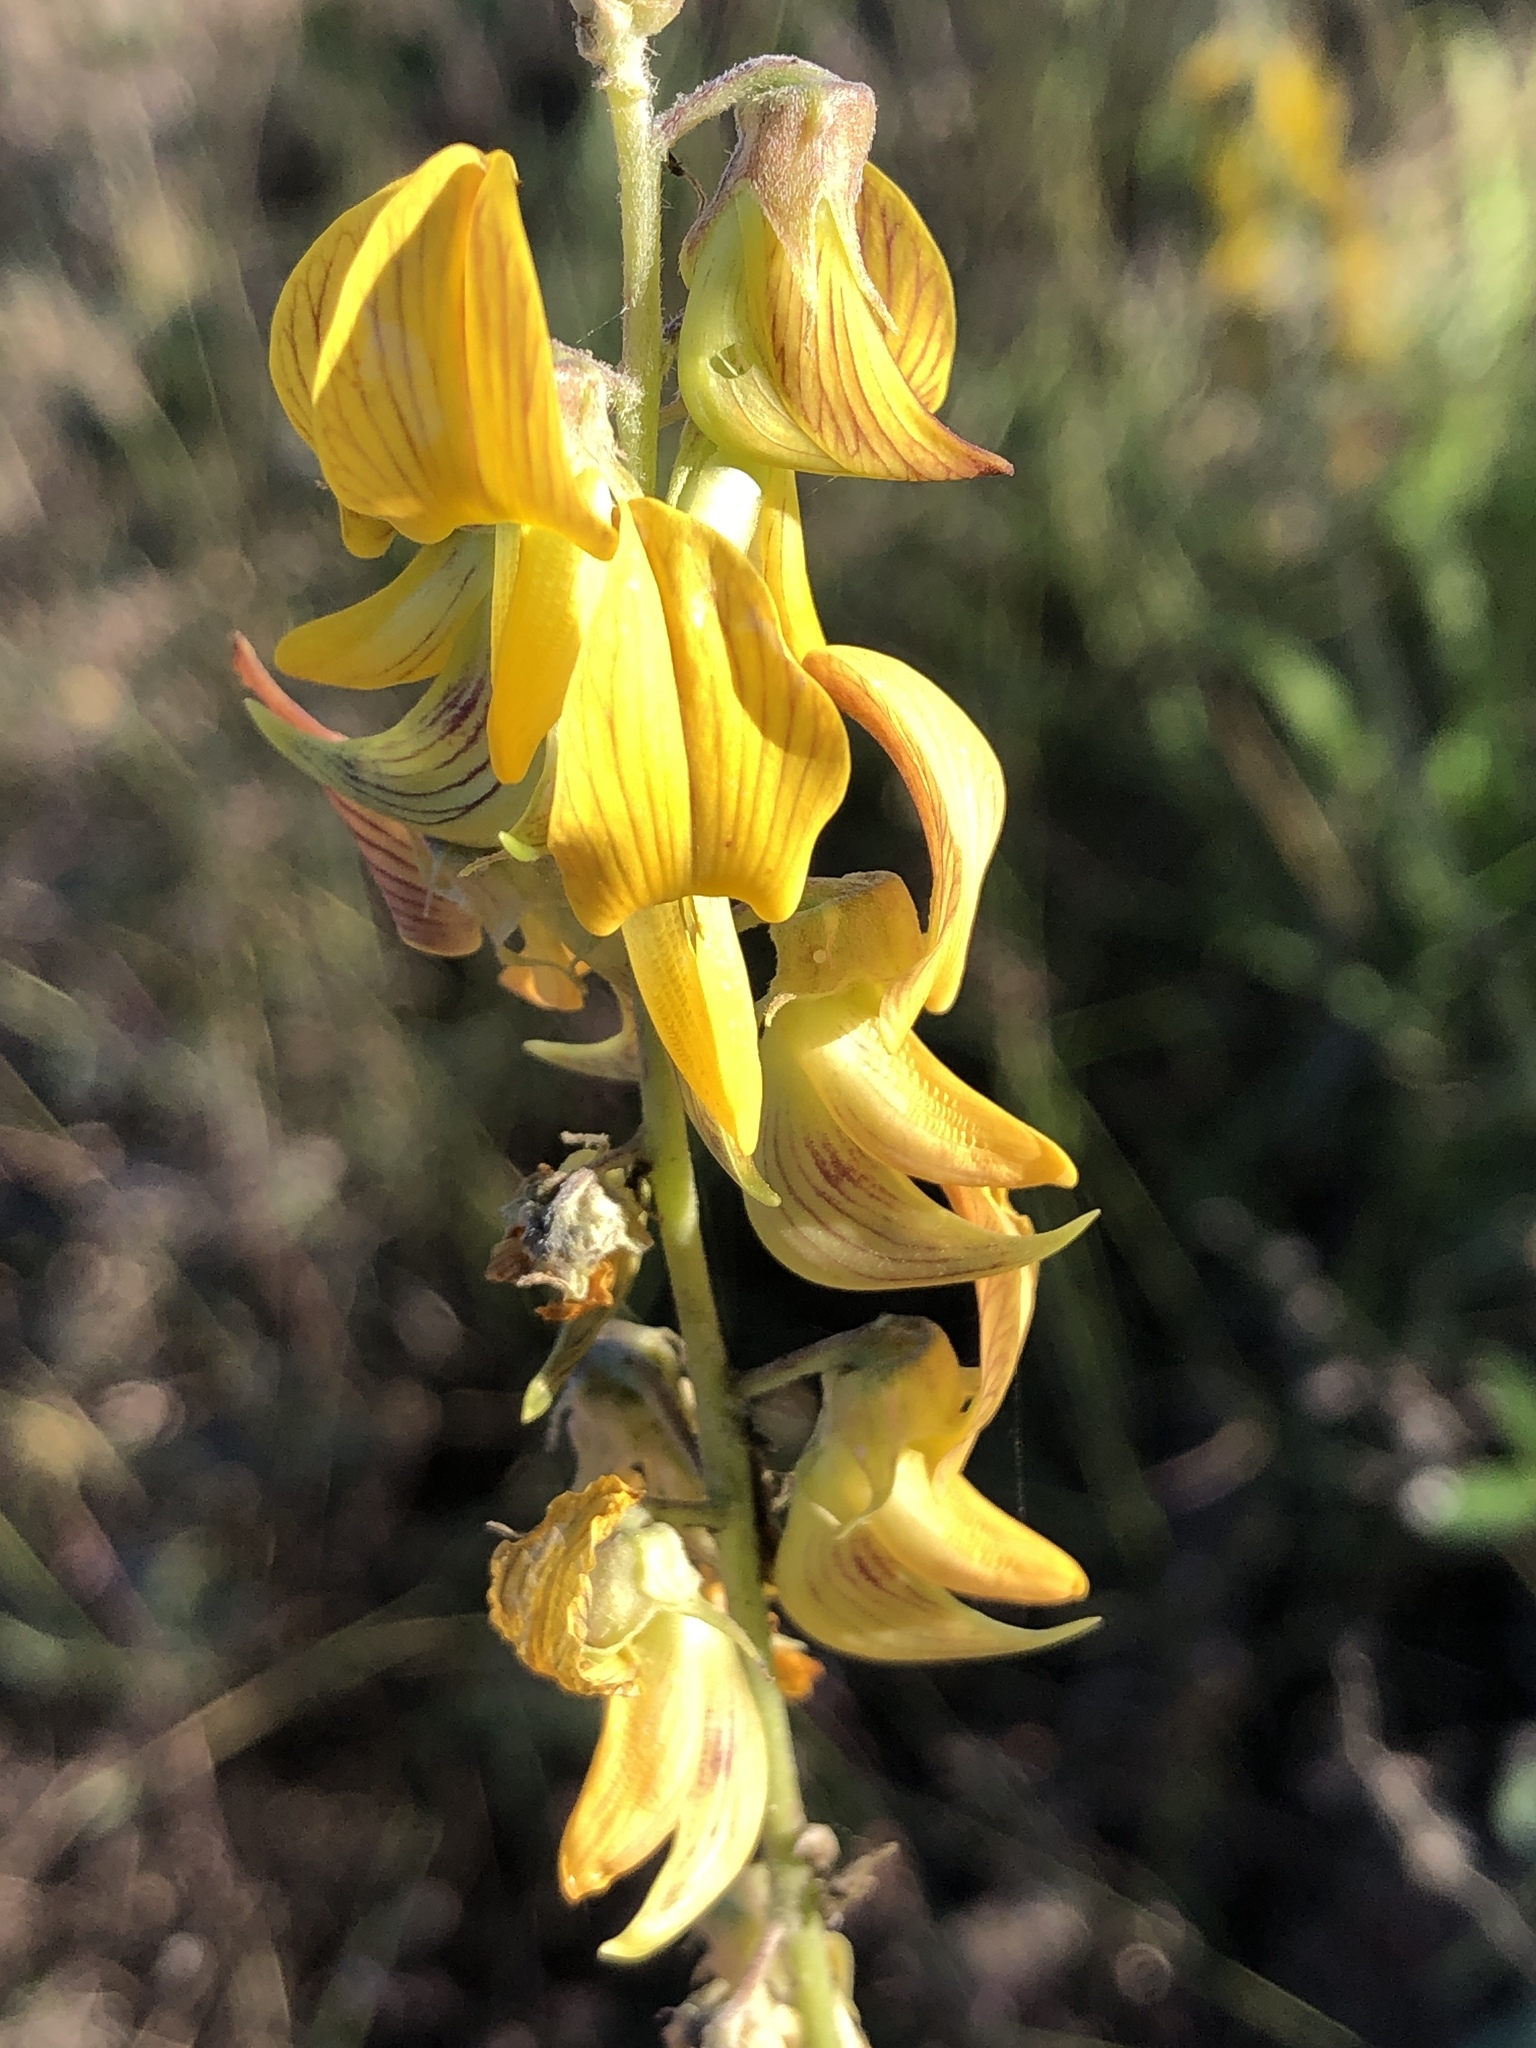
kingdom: Plantae
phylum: Tracheophyta
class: Magnoliopsida
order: Fabales
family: Fabaceae
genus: Crotalaria
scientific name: Crotalaria pallida
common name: Smooth rattlebox
